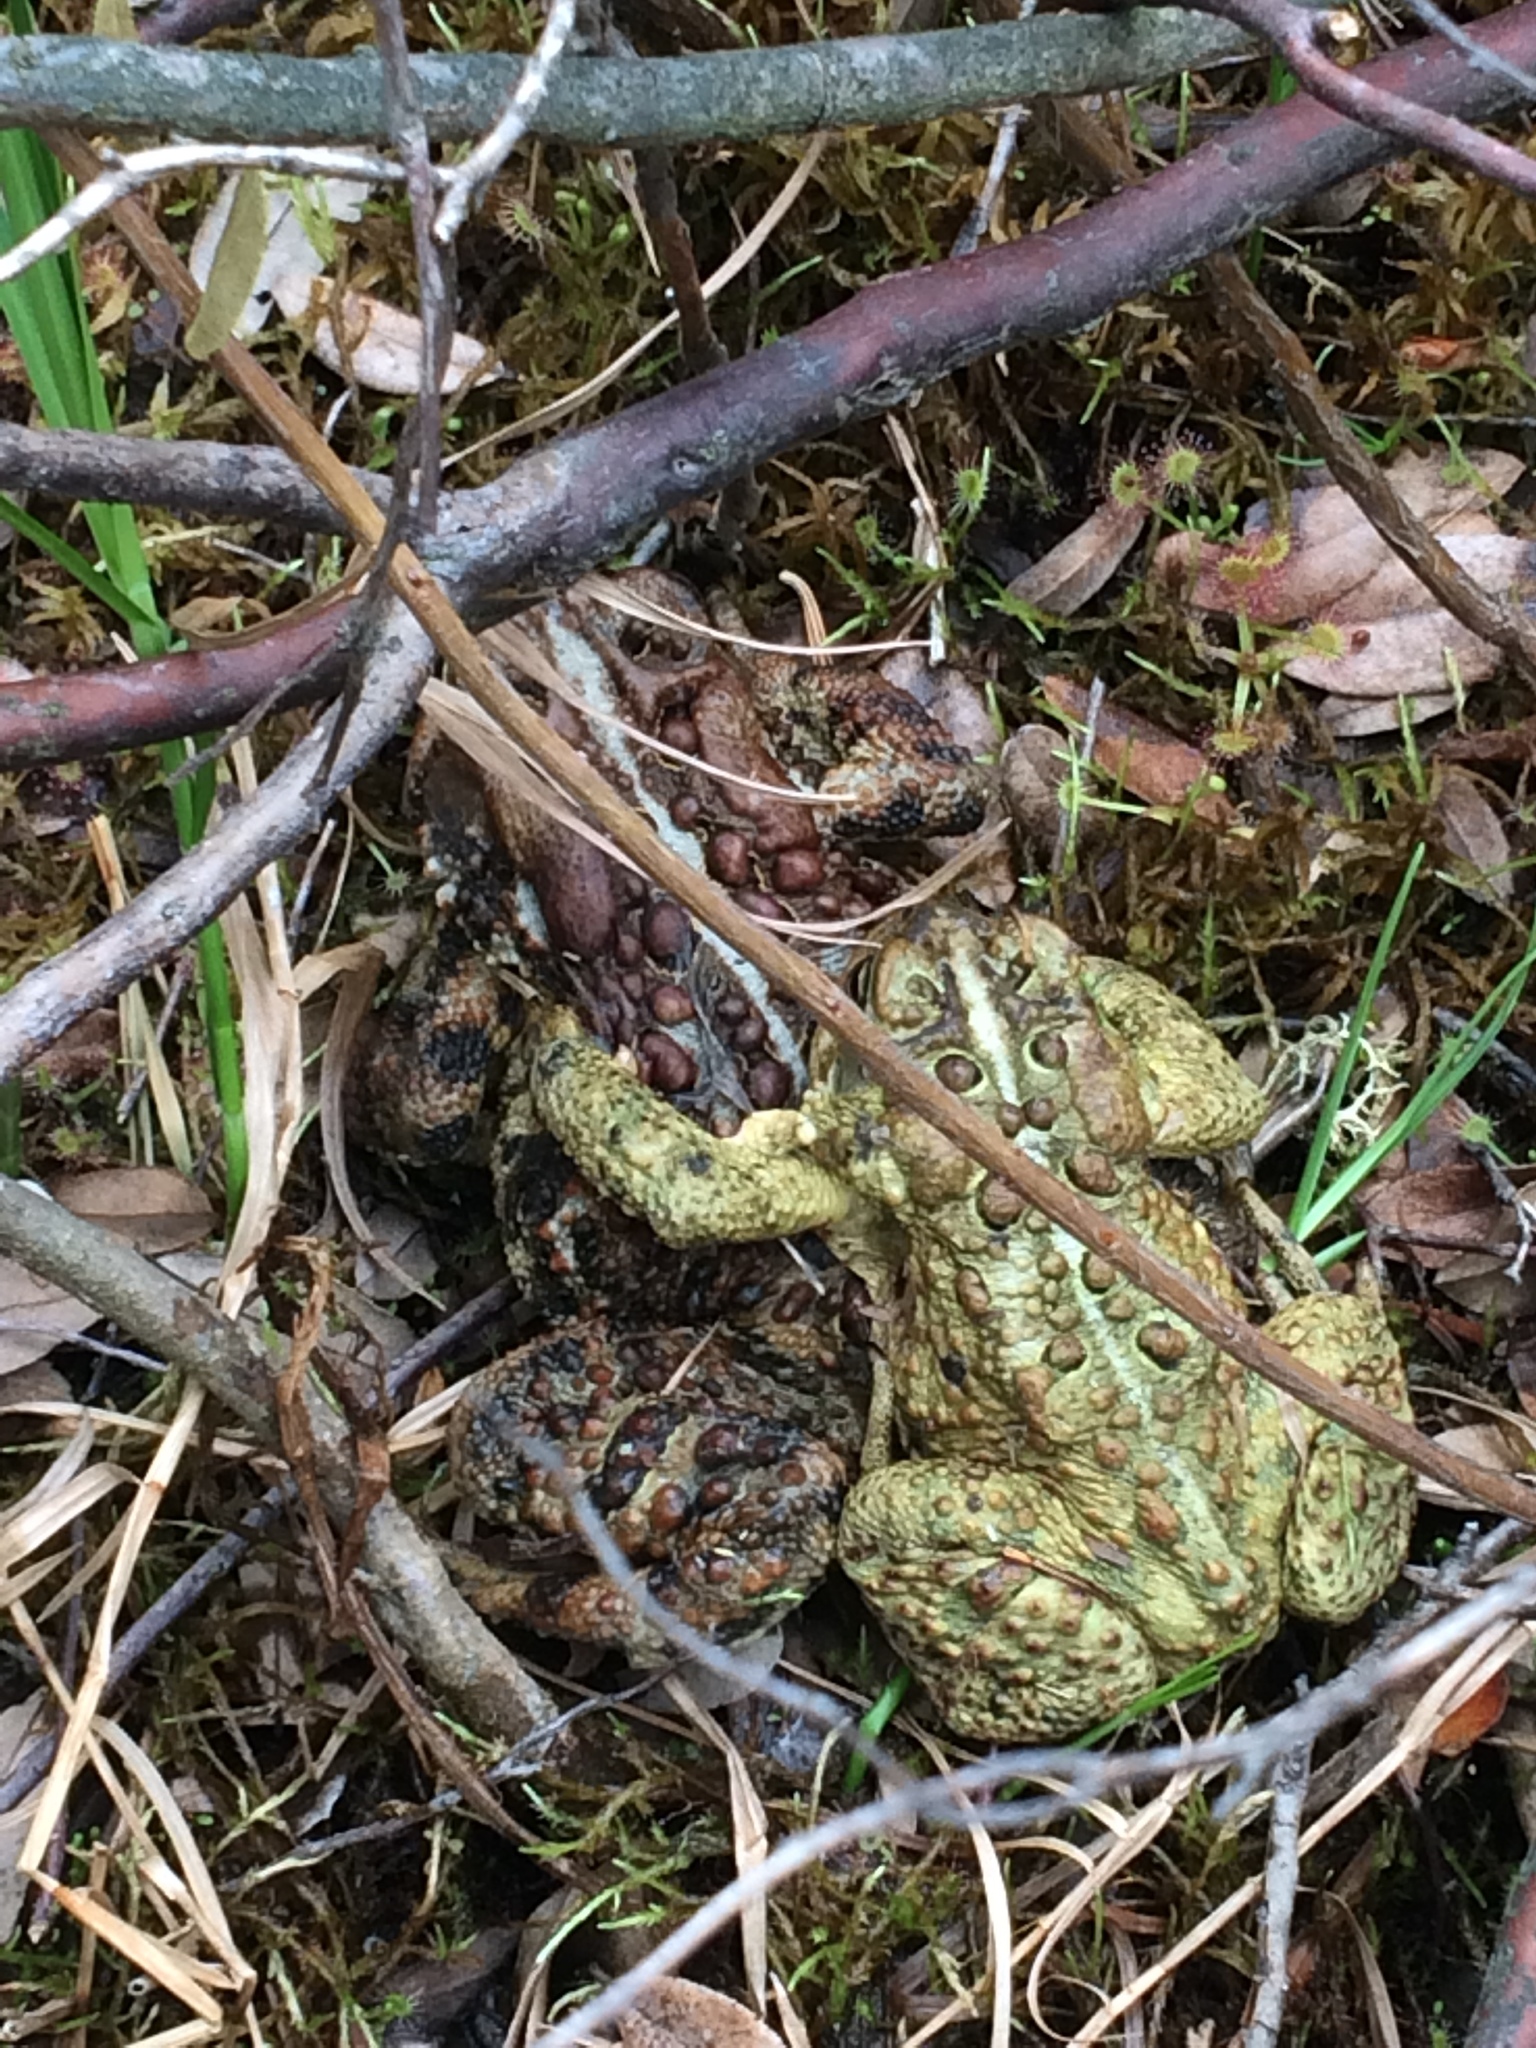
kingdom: Plantae
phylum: Tracheophyta
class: Magnoliopsida
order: Caryophyllales
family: Droseraceae
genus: Drosera
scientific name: Drosera rotundifolia
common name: Round-leaved sundew
